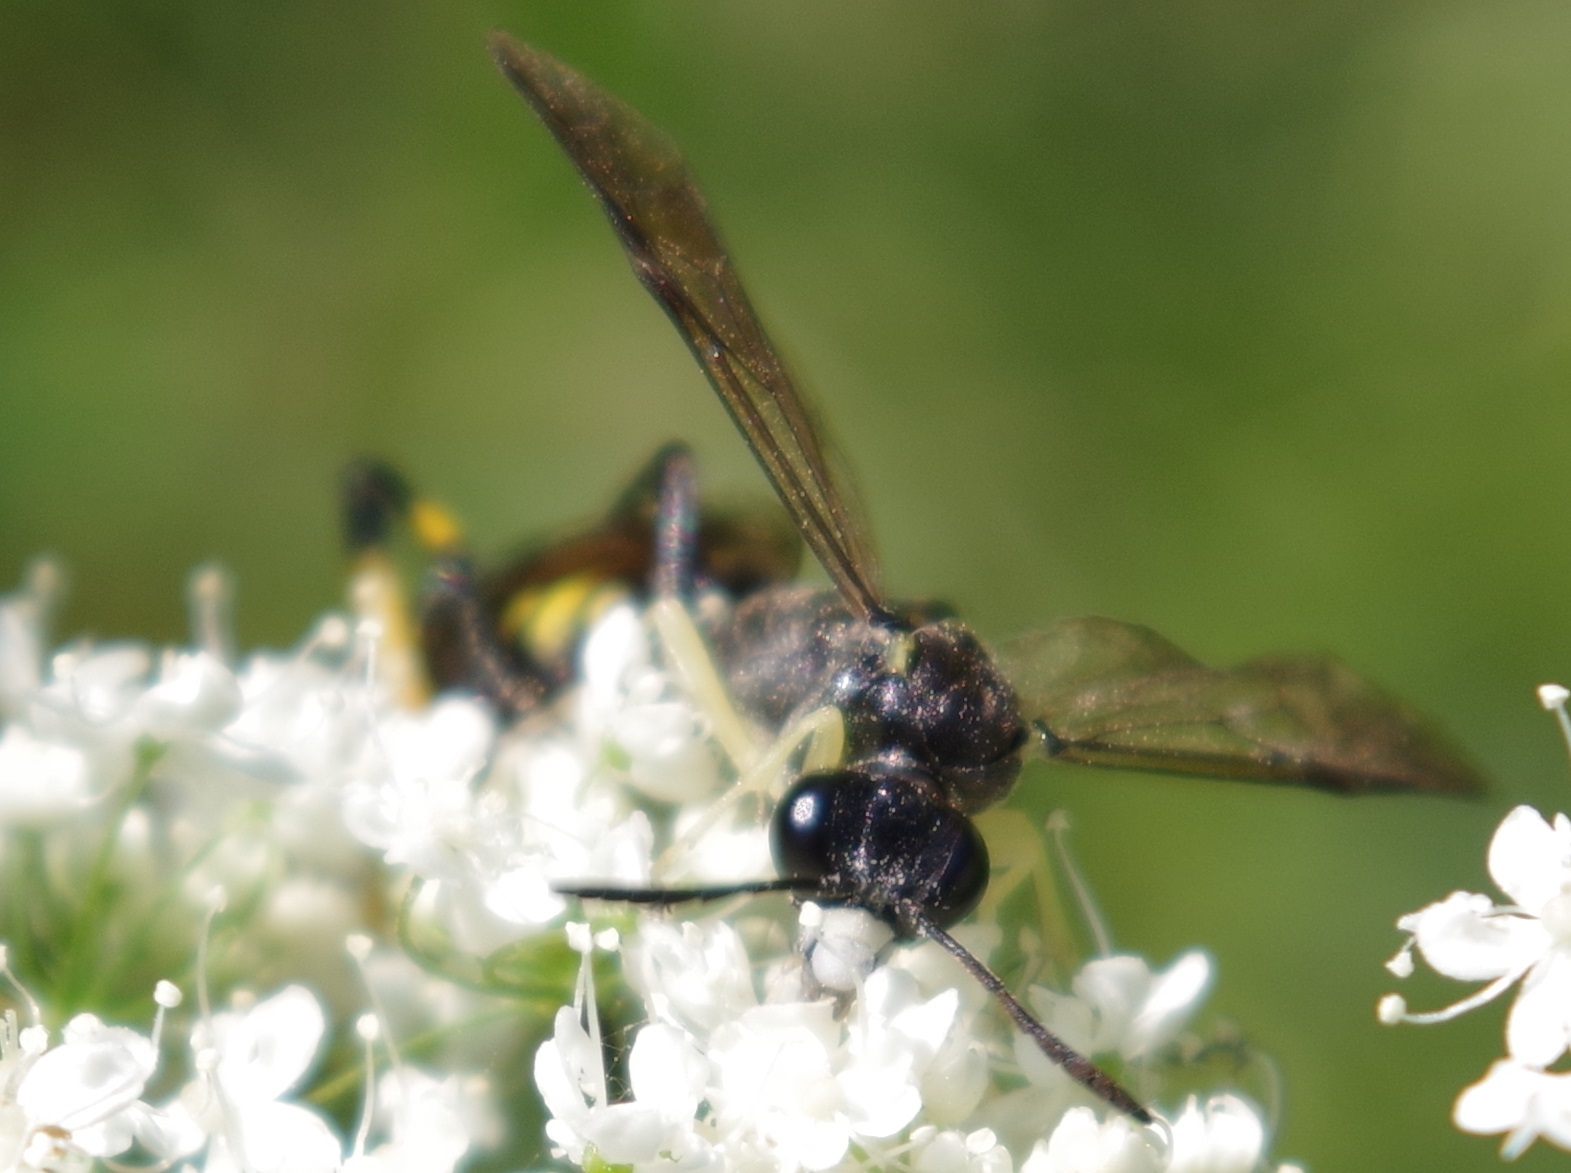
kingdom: Animalia
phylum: Arthropoda
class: Insecta
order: Hymenoptera
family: Tenthredinidae
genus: Macrophya
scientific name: Macrophya montana
